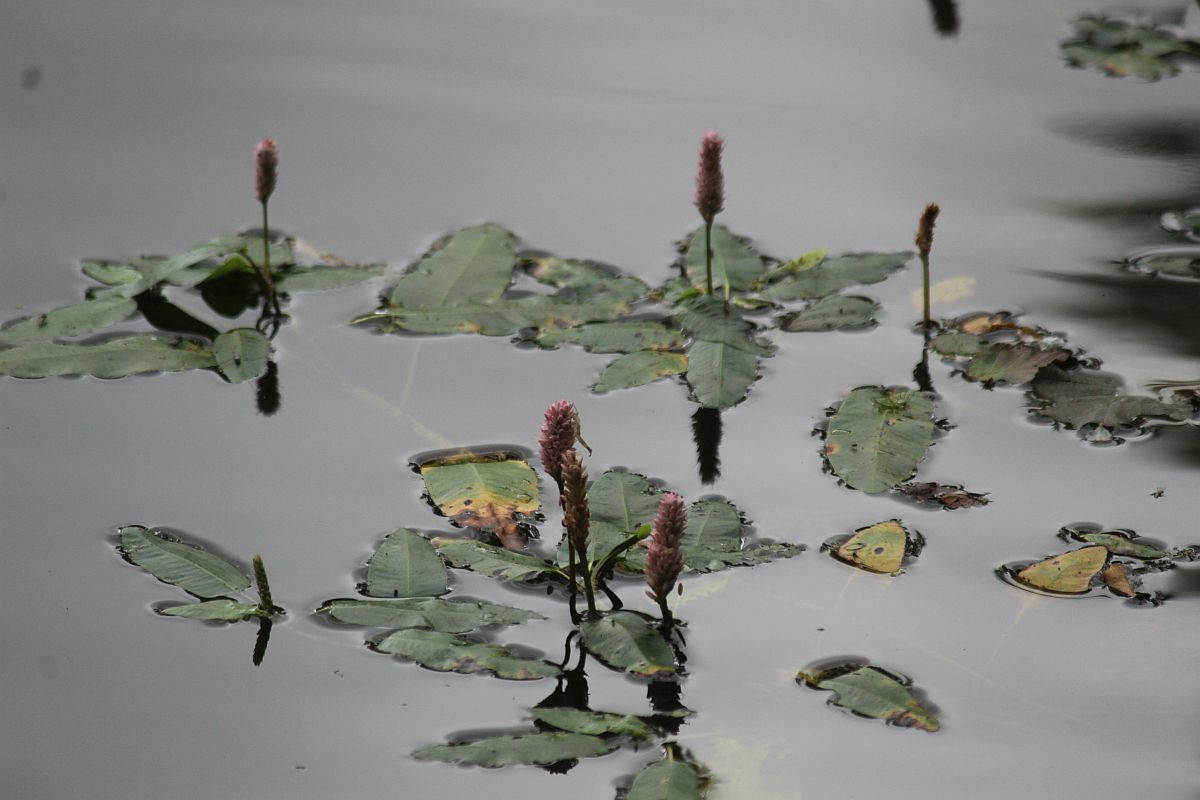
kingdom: Plantae
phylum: Tracheophyta
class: Magnoliopsida
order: Caryophyllales
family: Polygonaceae
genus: Persicaria
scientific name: Persicaria amphibia
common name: Amphibious bistort
